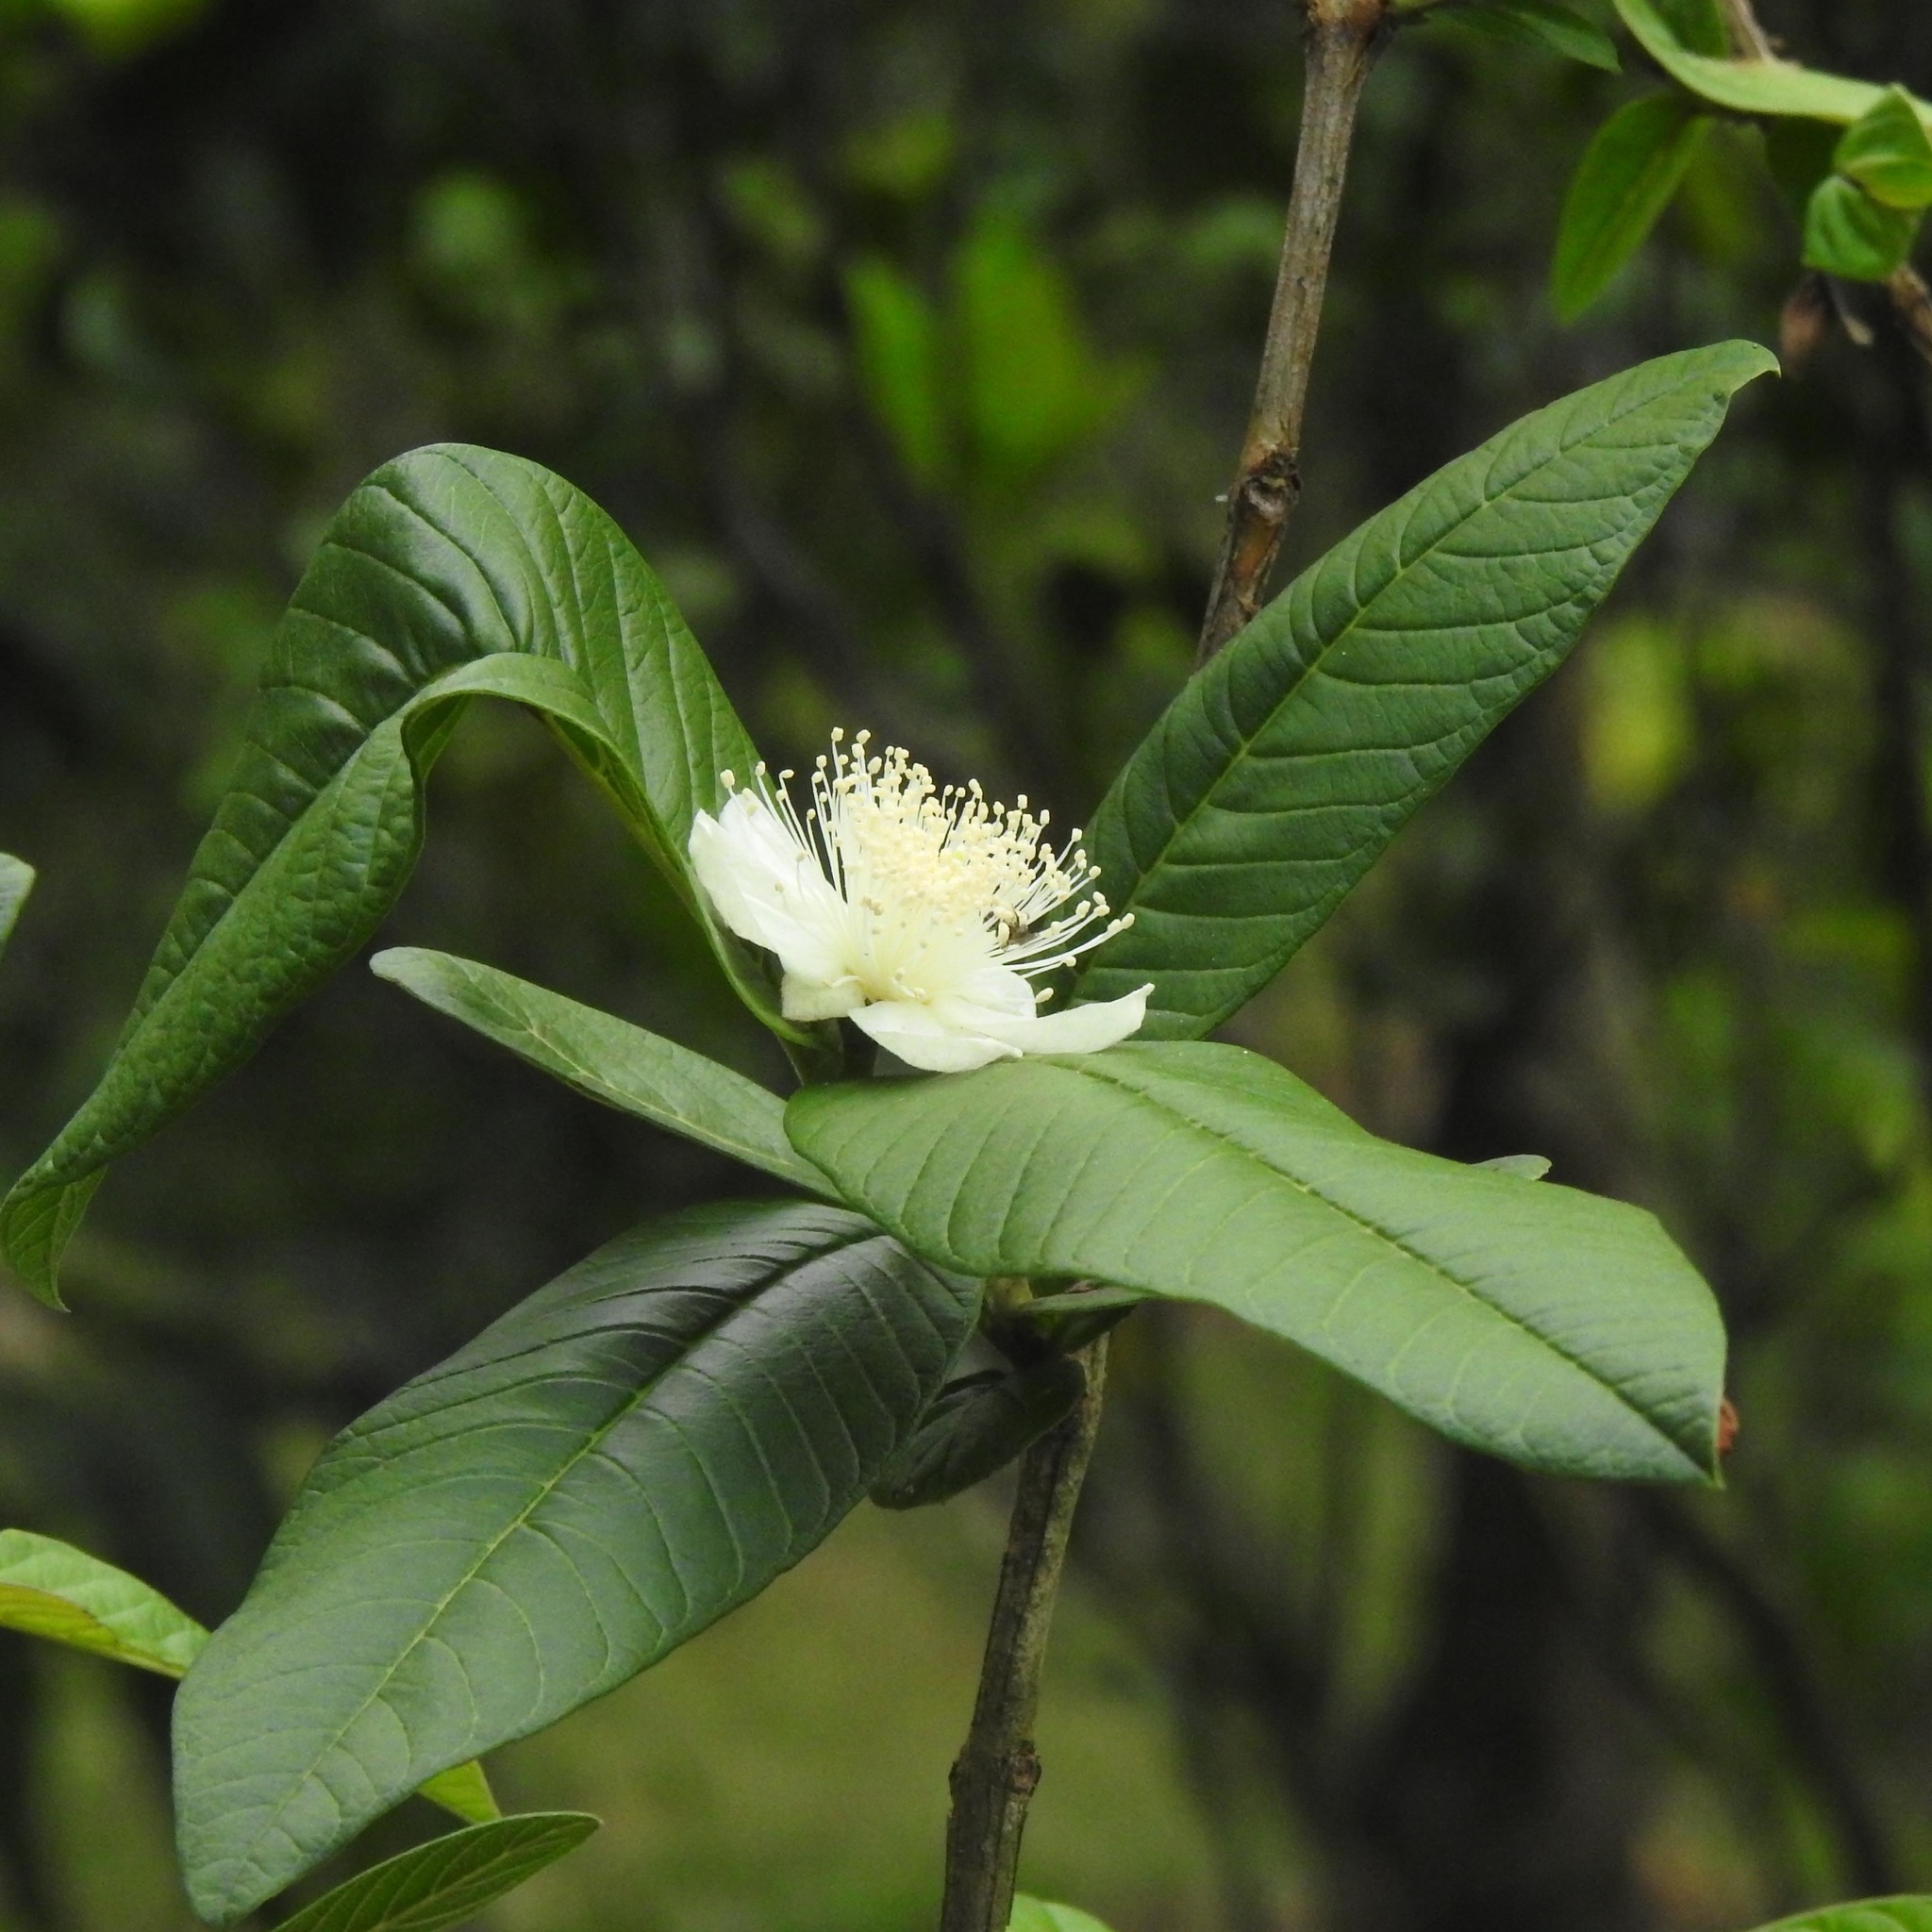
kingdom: Plantae
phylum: Tracheophyta
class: Magnoliopsida
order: Myrtales
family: Myrtaceae
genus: Psidium
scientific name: Psidium guajava
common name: Guava
